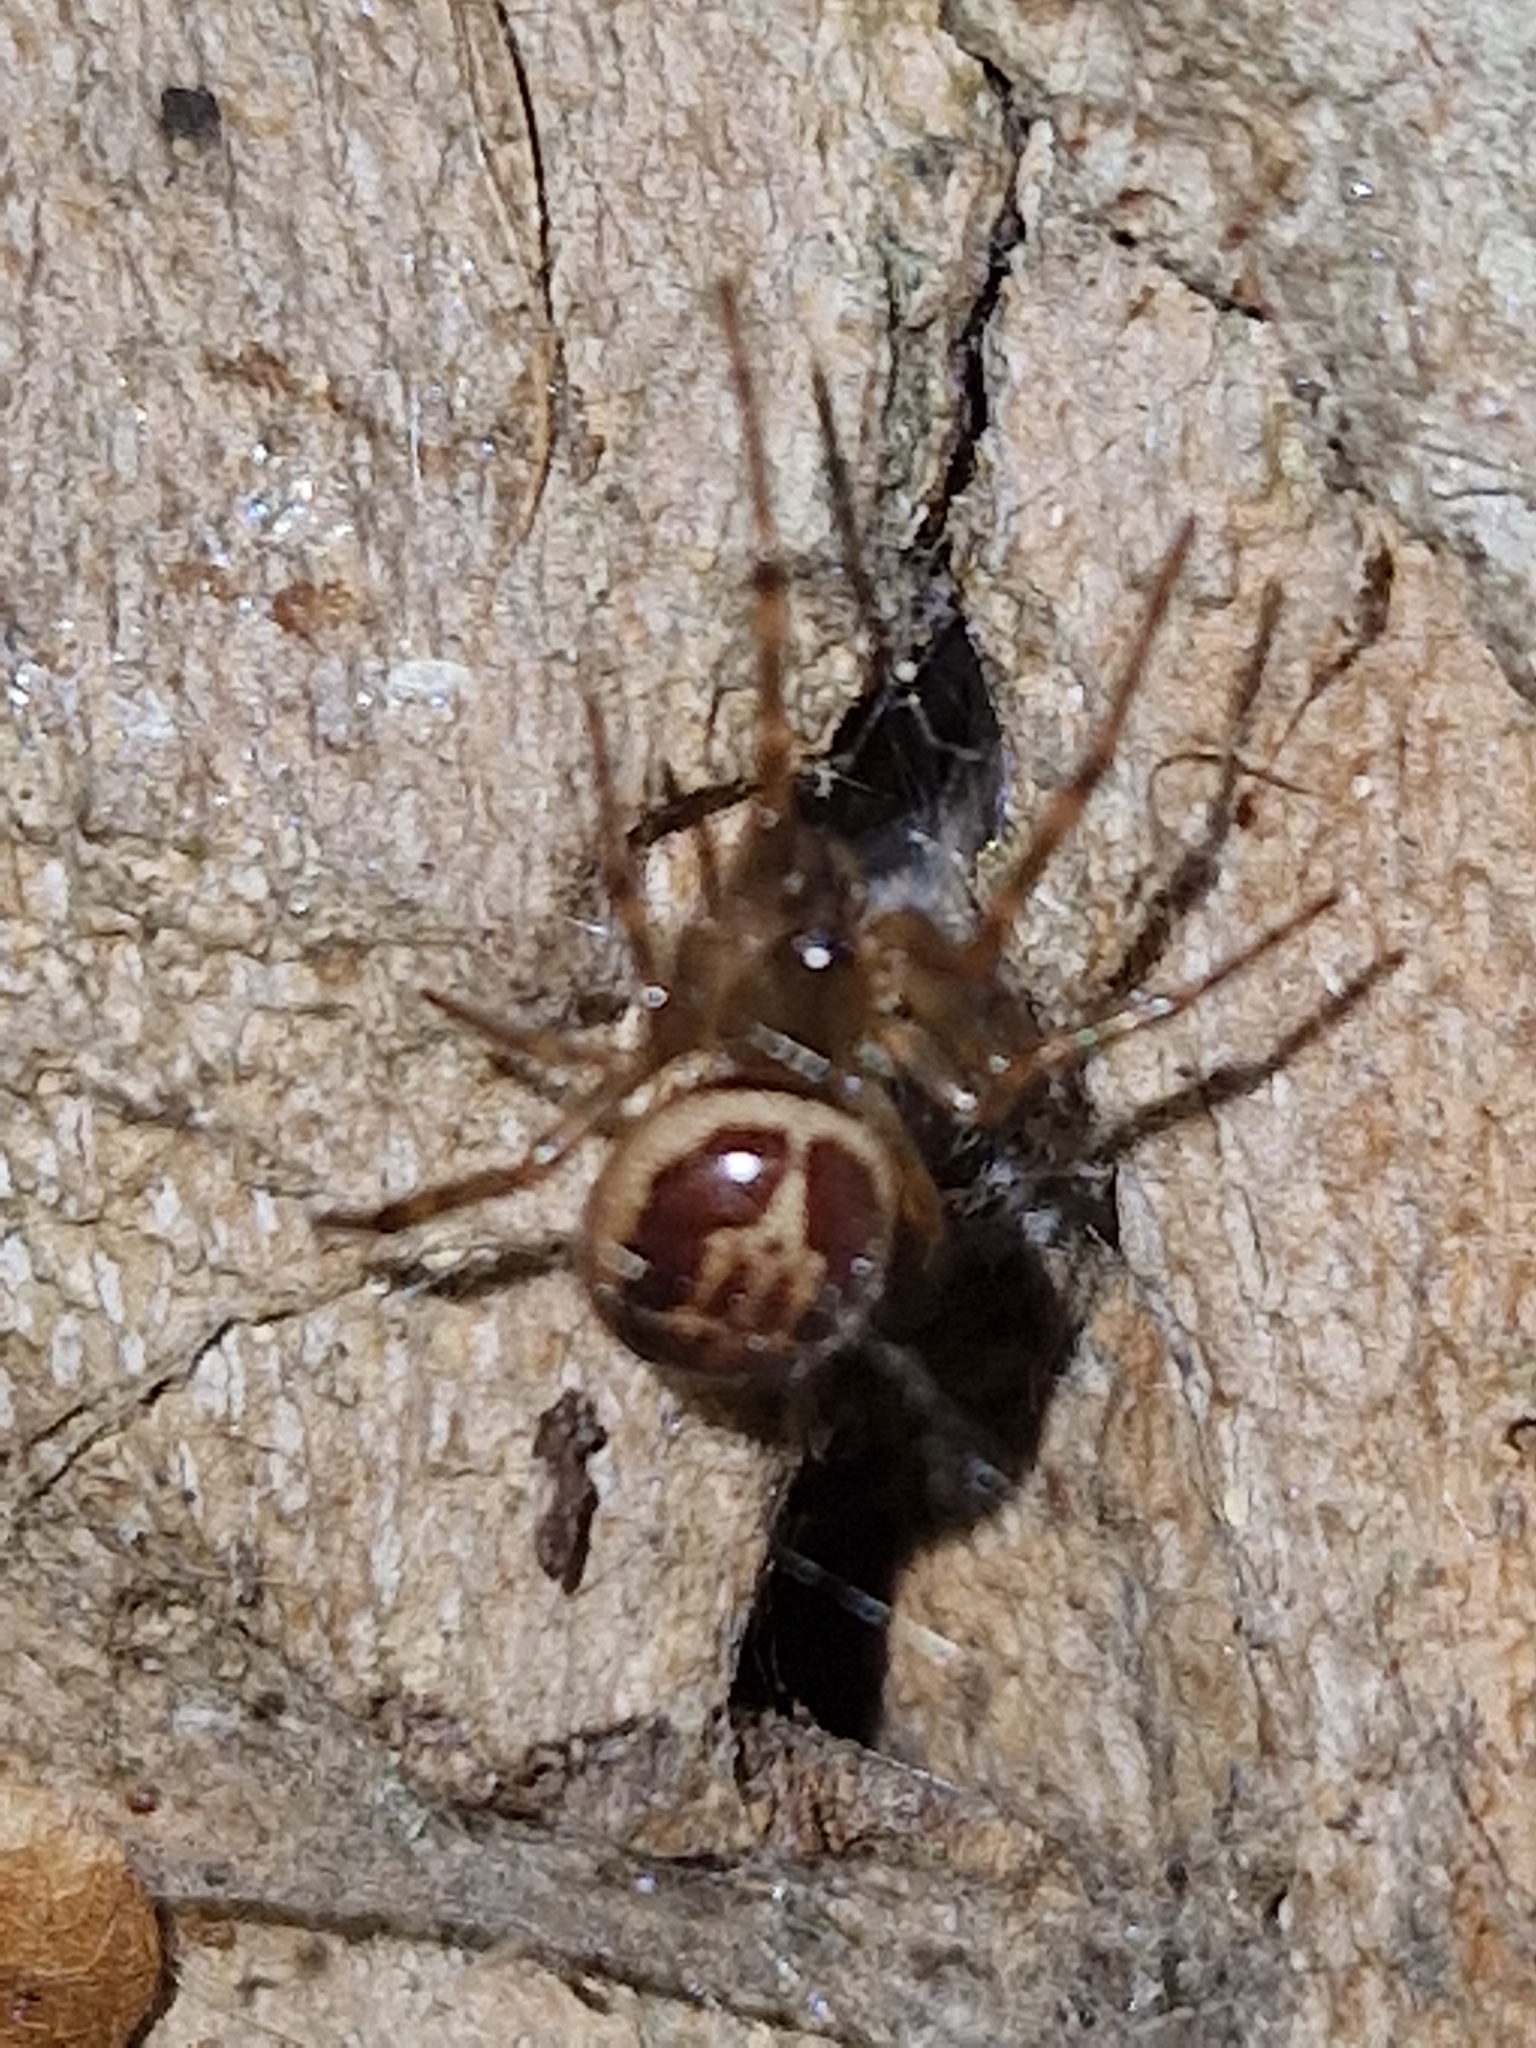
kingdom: Animalia
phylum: Arthropoda
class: Arachnida
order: Araneae
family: Theridiidae
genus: Steatoda
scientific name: Steatoda nobilis
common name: Cobweb weaver
